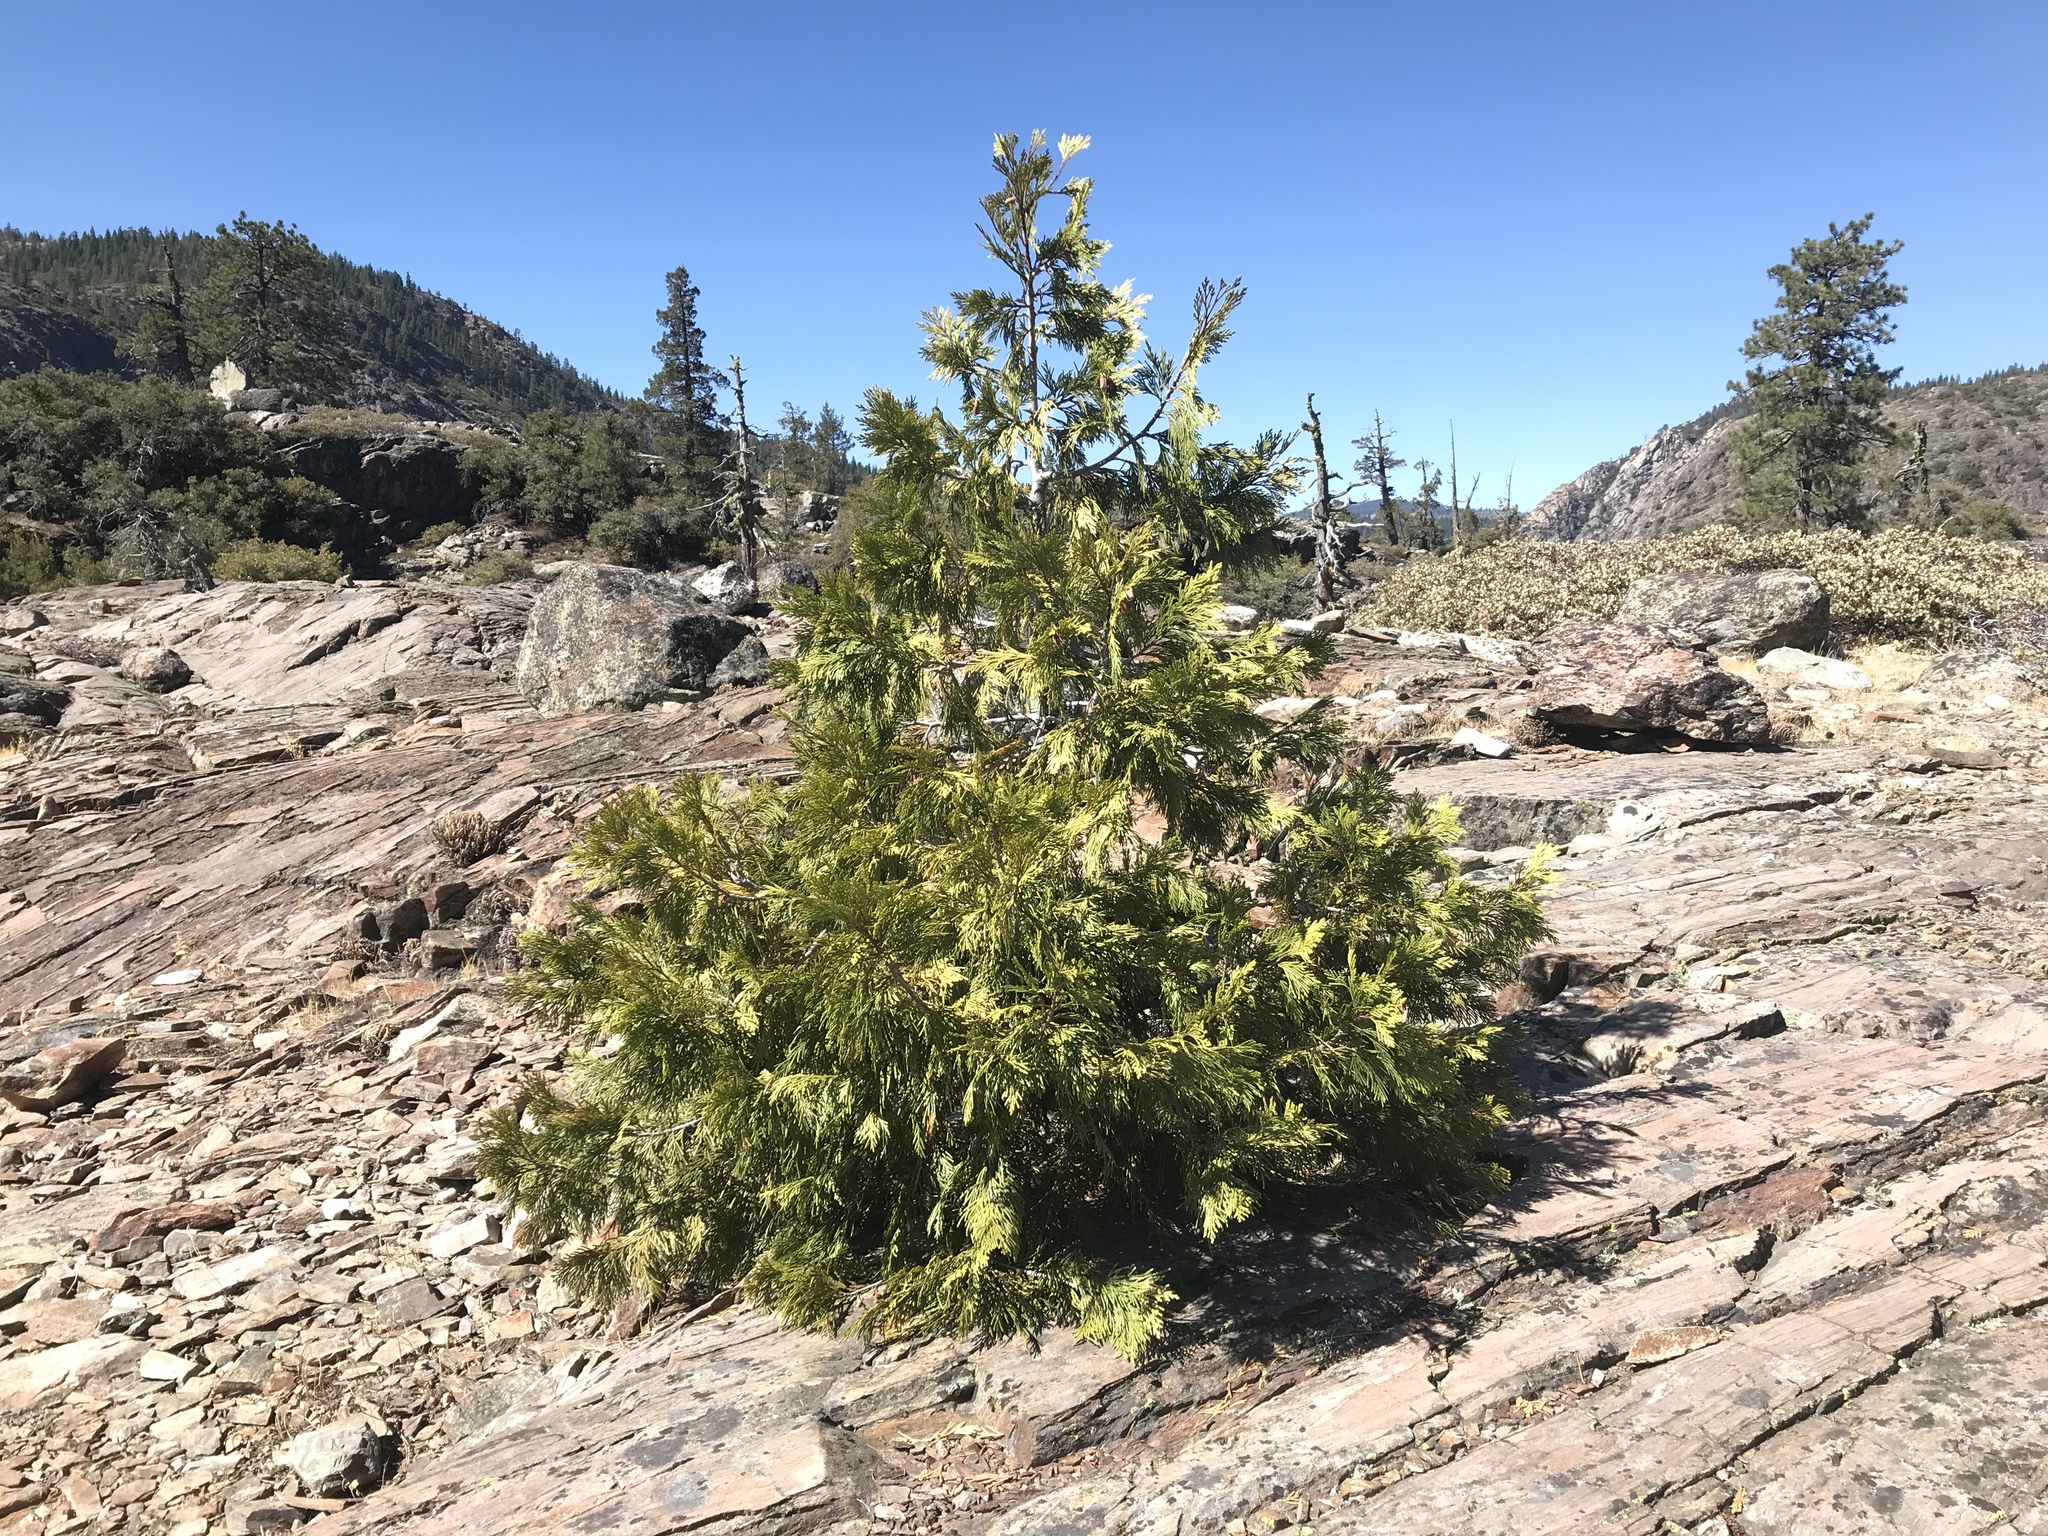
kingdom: Plantae
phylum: Tracheophyta
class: Pinopsida
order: Pinales
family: Cupressaceae
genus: Calocedrus
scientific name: Calocedrus decurrens
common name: Californian incense-cedar
